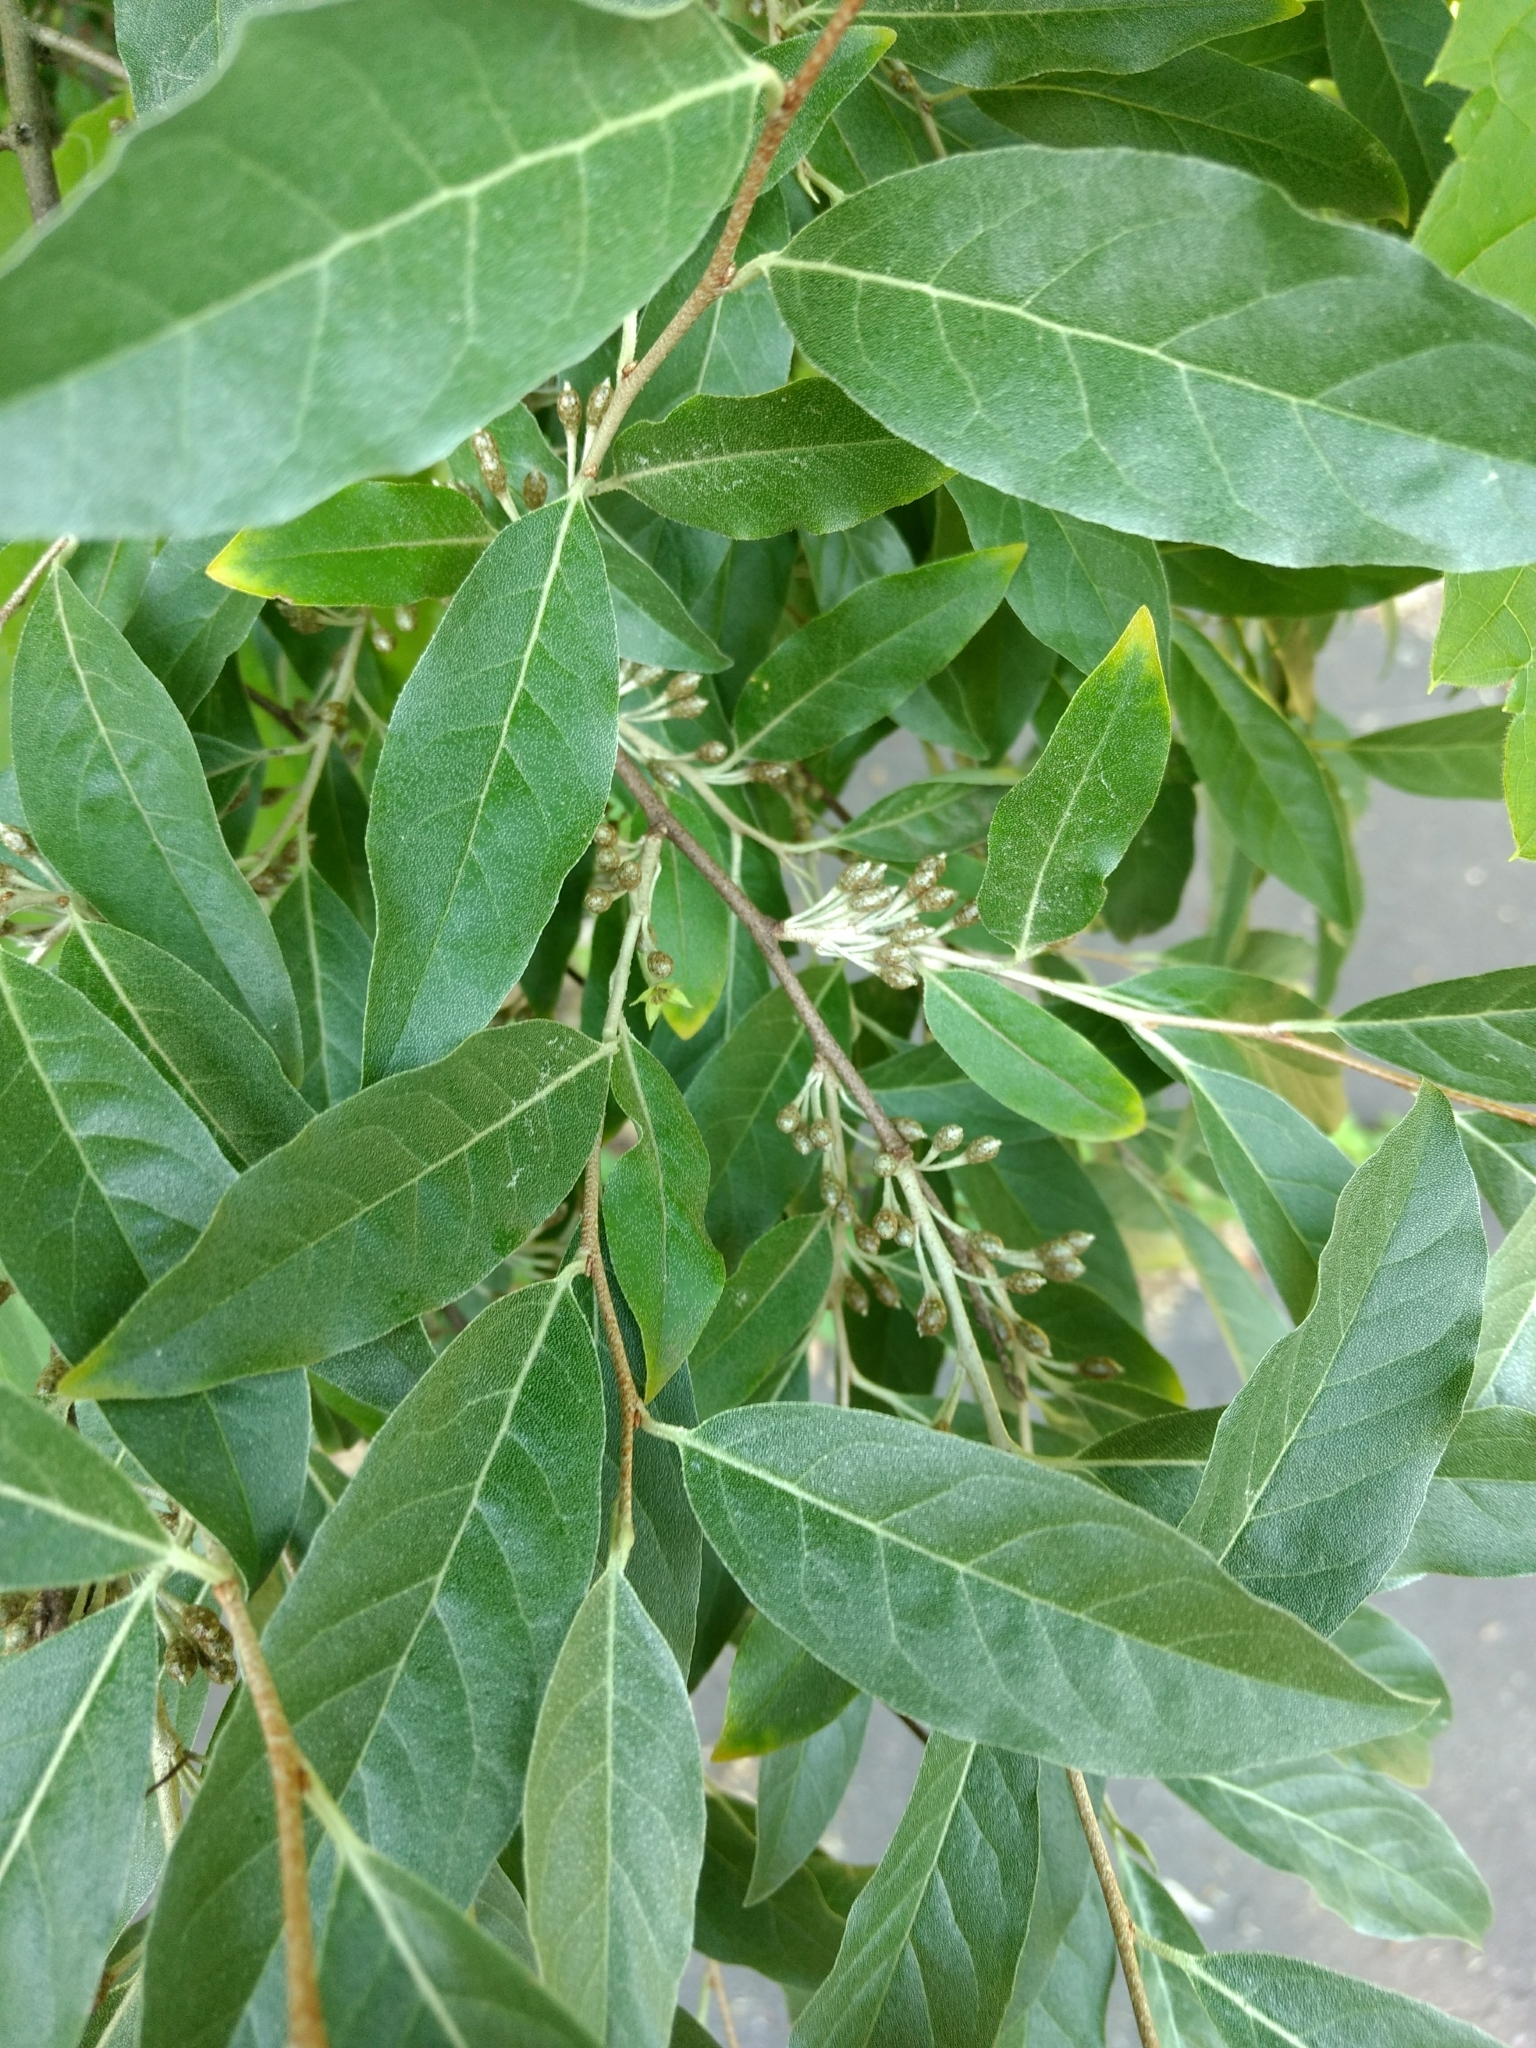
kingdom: Plantae
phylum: Tracheophyta
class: Magnoliopsida
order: Rosales
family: Elaeagnaceae
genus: Elaeagnus
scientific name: Elaeagnus umbellata
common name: Autumn olive
